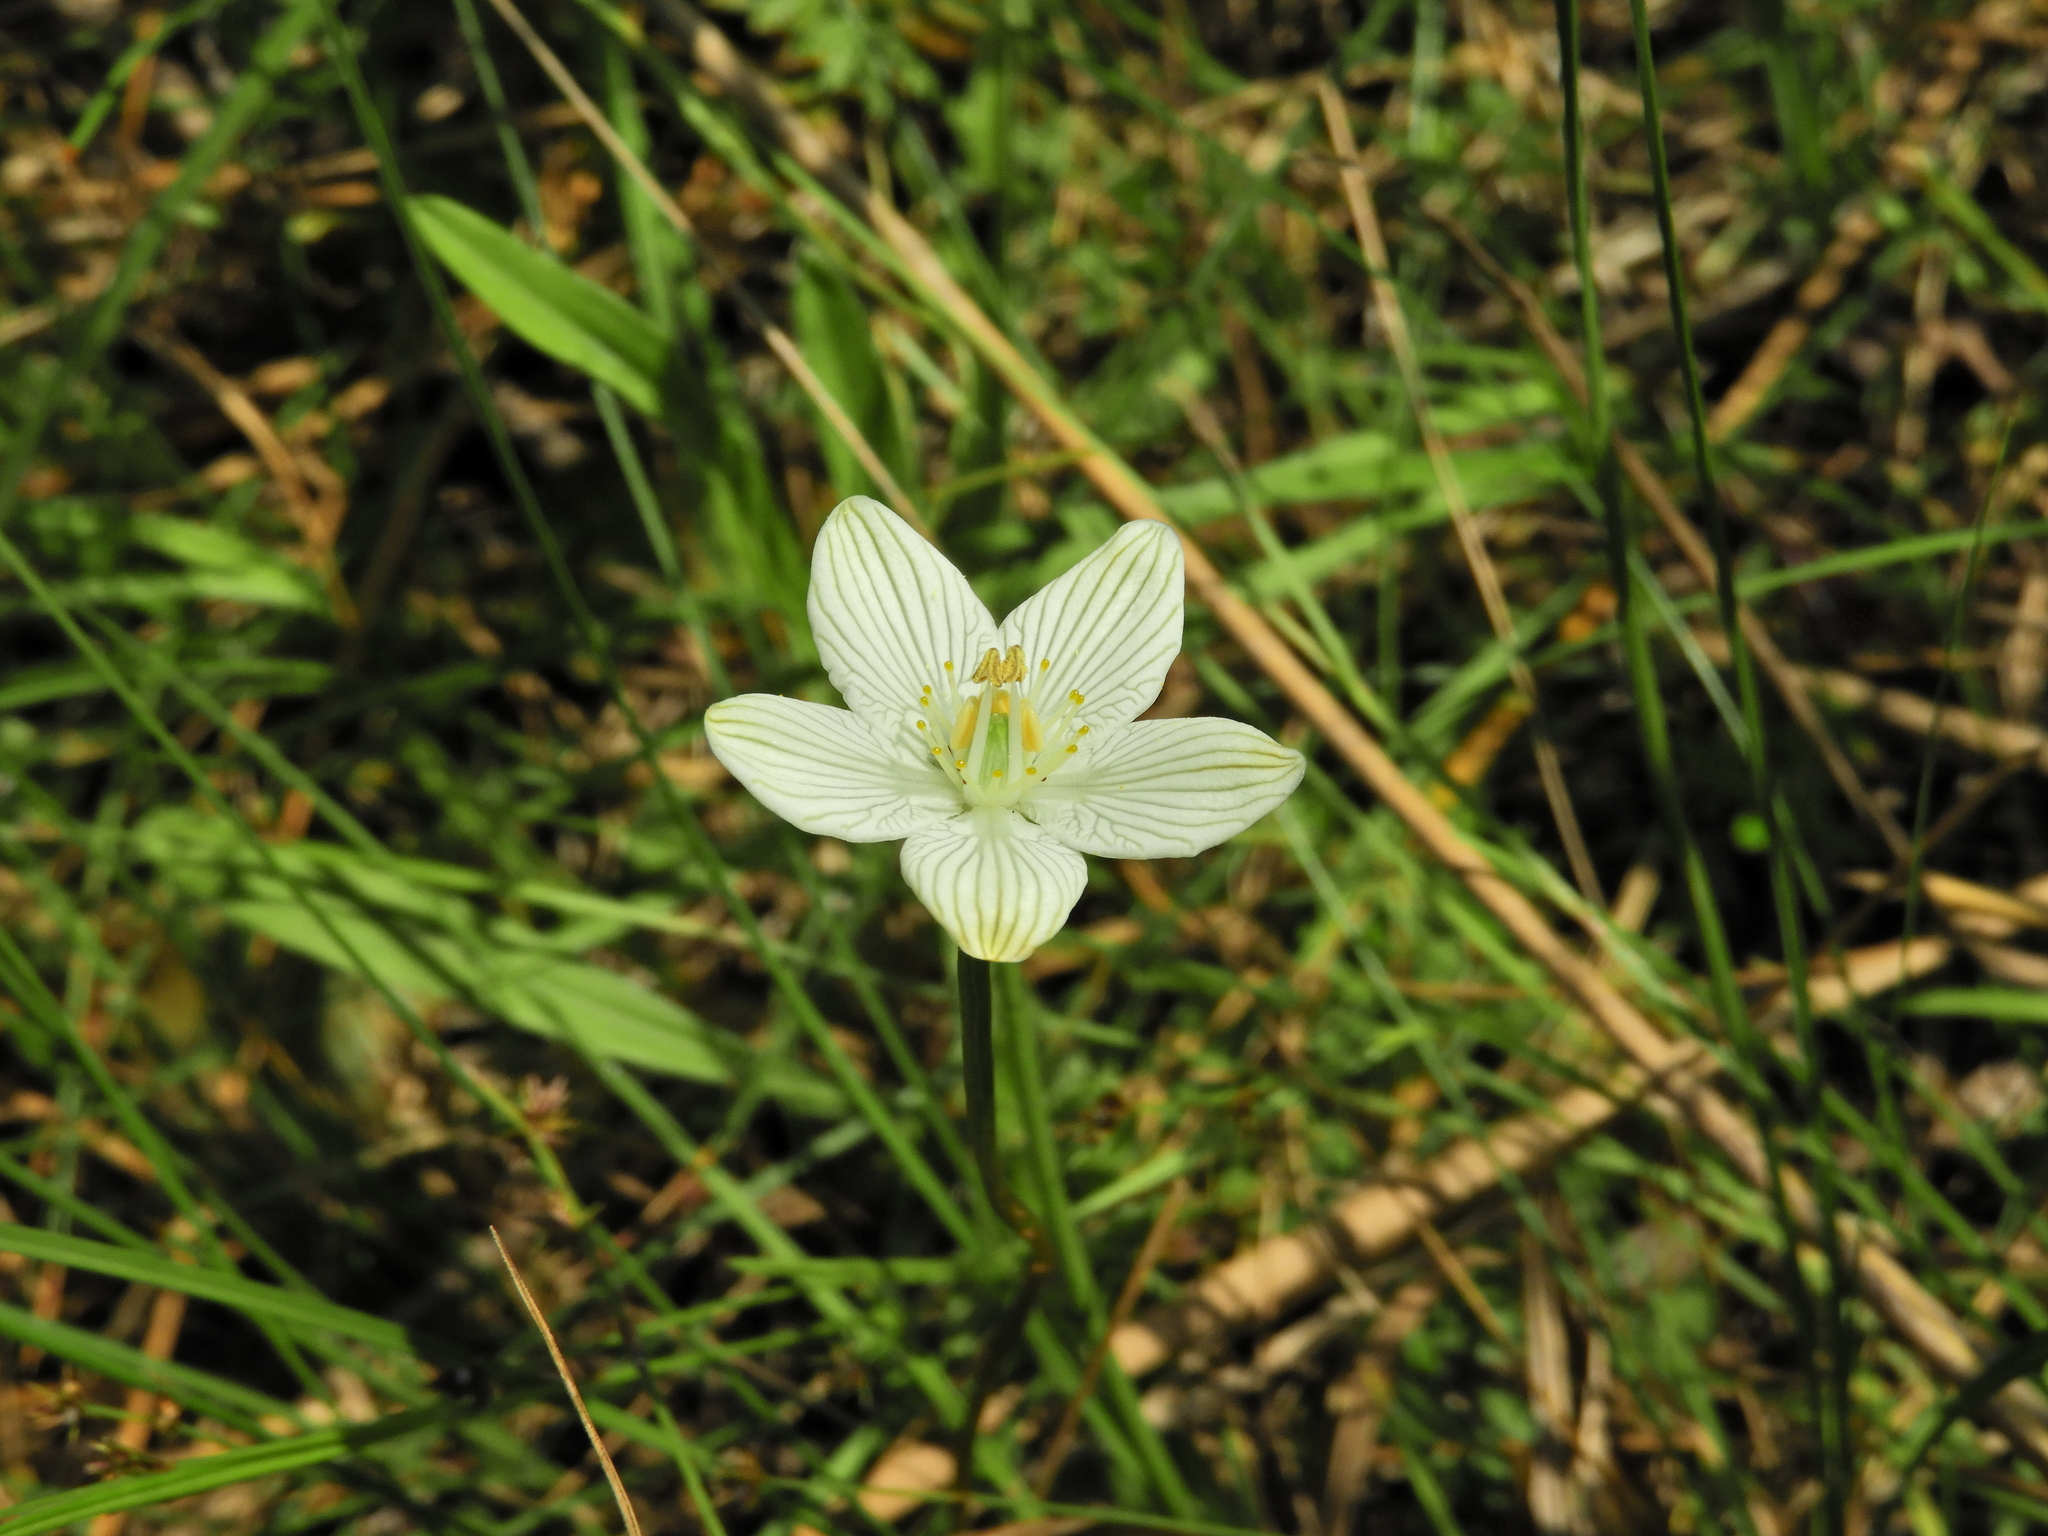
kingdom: Plantae
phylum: Tracheophyta
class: Magnoliopsida
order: Celastrales
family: Parnassiaceae
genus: Parnassia
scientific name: Parnassia glauca
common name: American grass-of-parnassus
